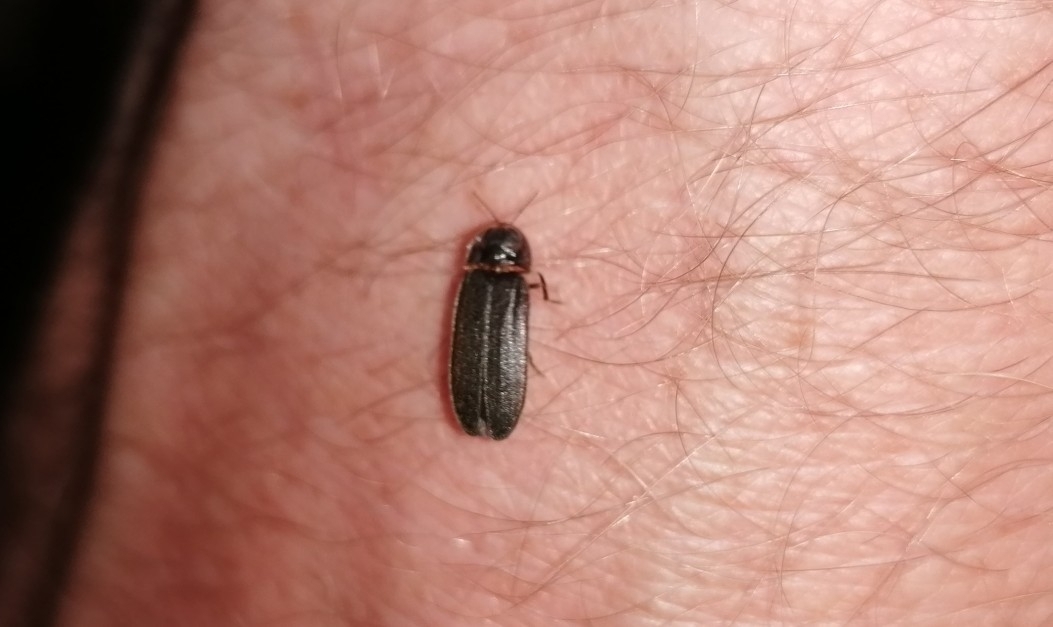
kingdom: Animalia
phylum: Arthropoda
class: Insecta
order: Coleoptera
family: Lampyridae
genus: Lamprohiza
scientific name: Lamprohiza splendidula
